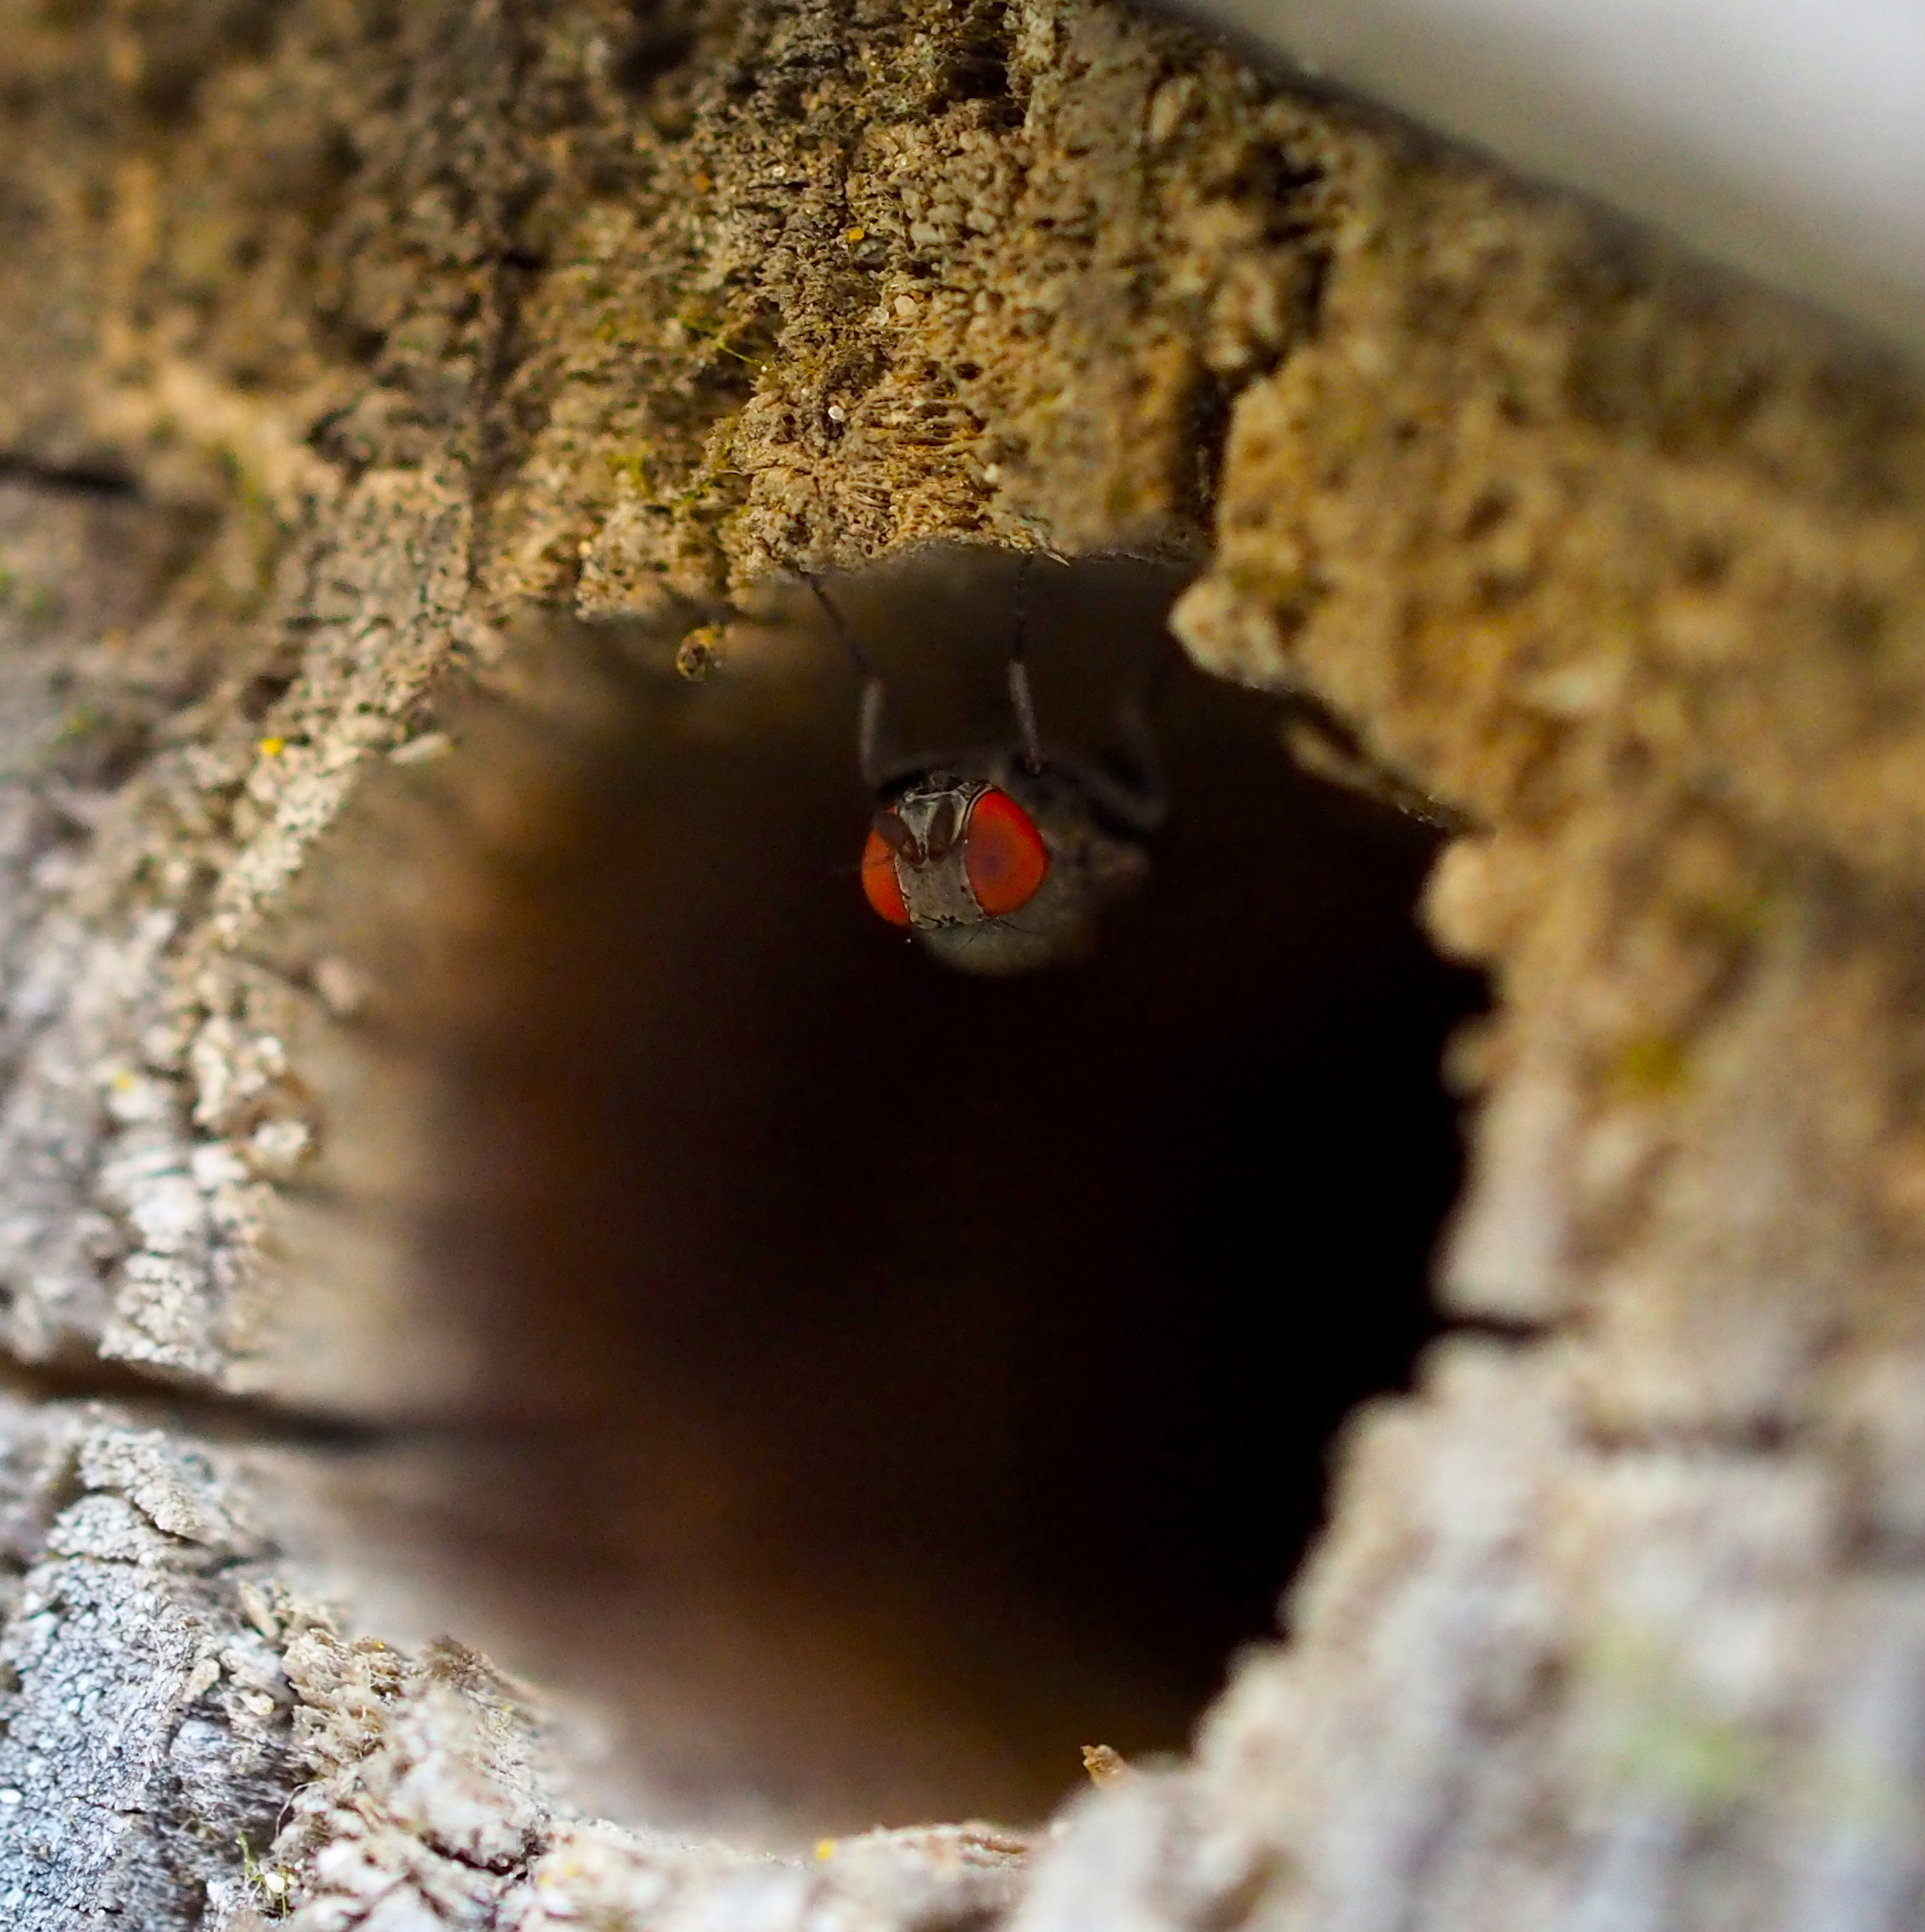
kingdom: Animalia
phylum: Arthropoda
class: Insecta
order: Diptera
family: Drosophilidae
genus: Cacoxenus
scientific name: Cacoxenus indagator
